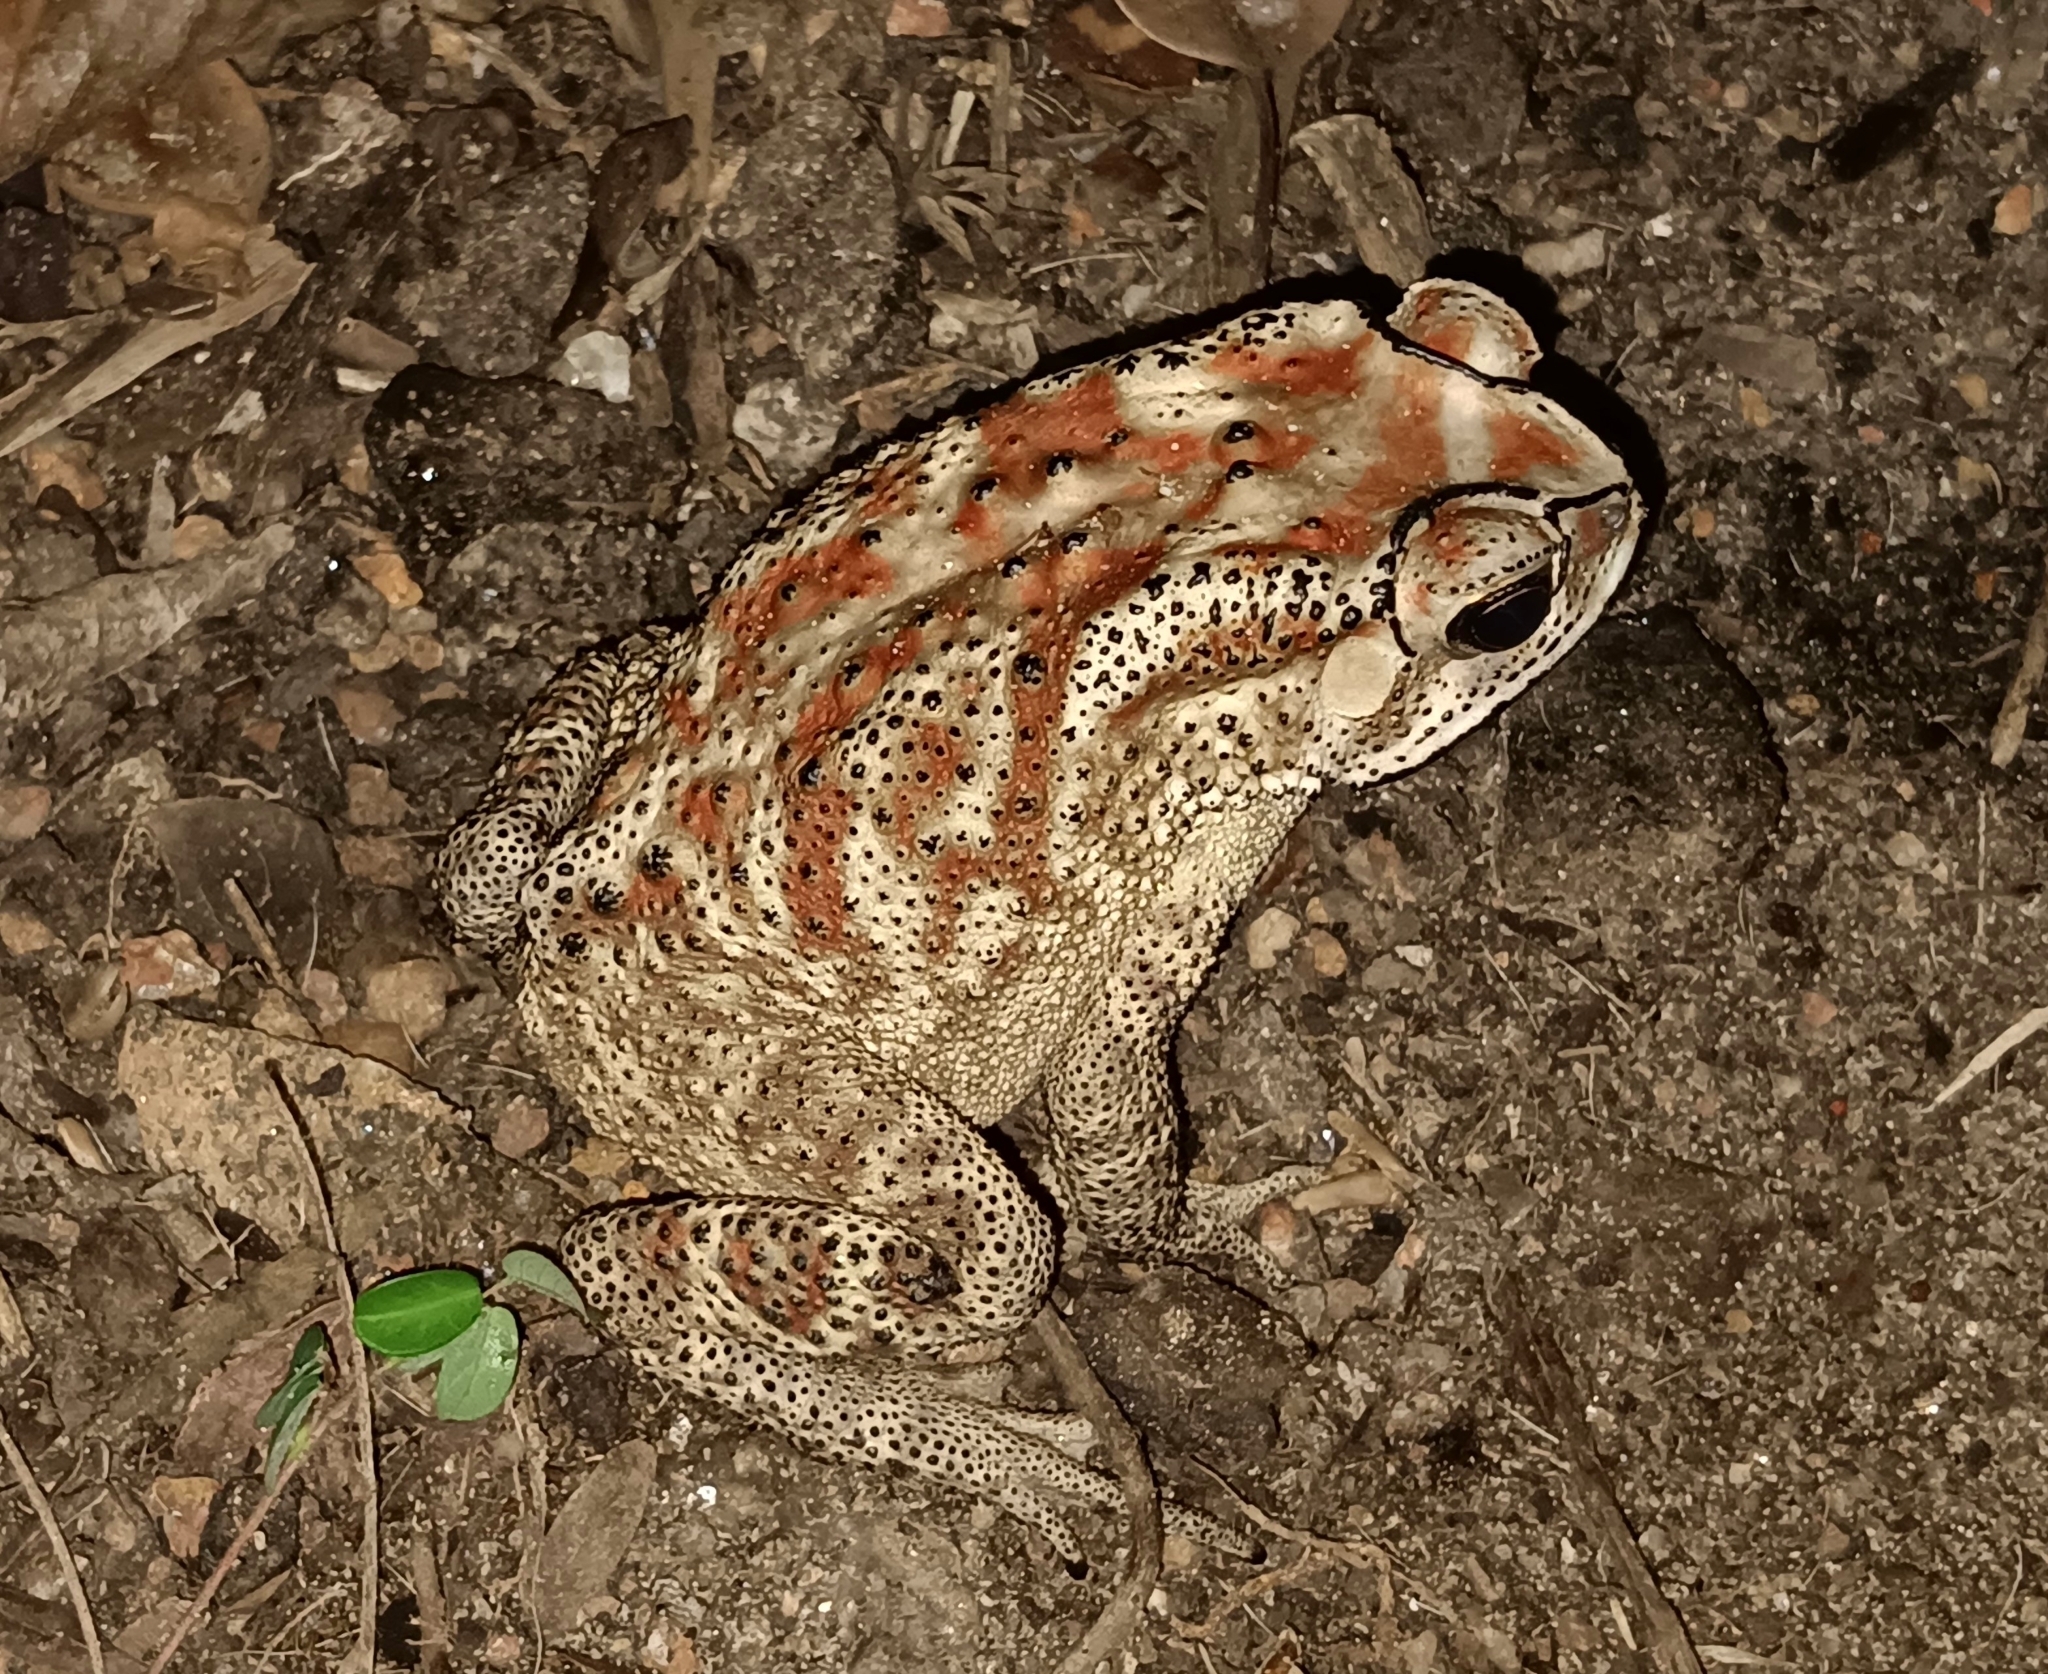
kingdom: Animalia
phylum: Chordata
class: Amphibia
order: Anura
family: Bufonidae
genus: Duttaphrynus
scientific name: Duttaphrynus melanostictus
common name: Common sunda toad
